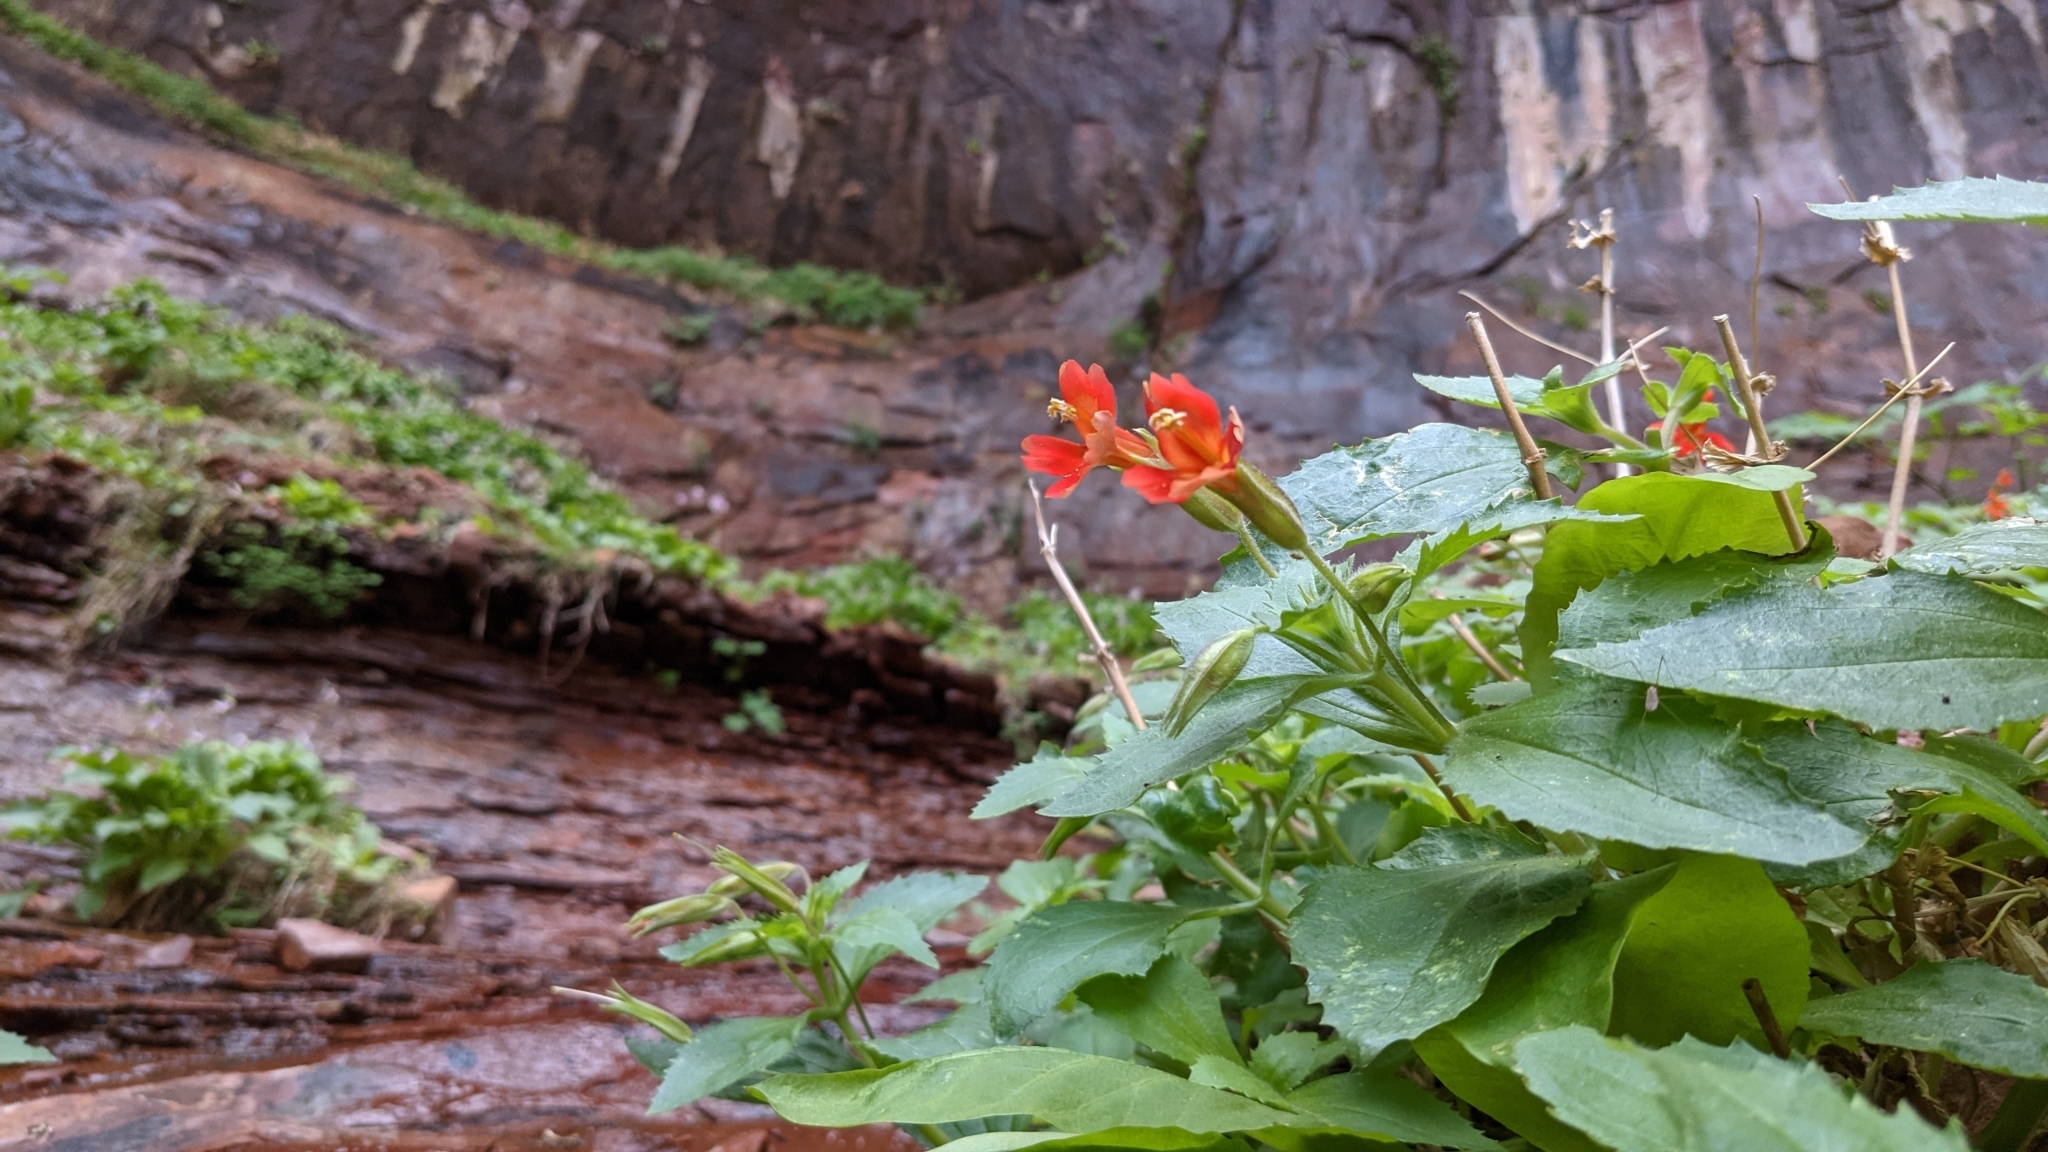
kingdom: Plantae
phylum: Tracheophyta
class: Magnoliopsida
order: Lamiales
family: Phrymaceae
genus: Erythranthe
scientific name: Erythranthe verbenacea
